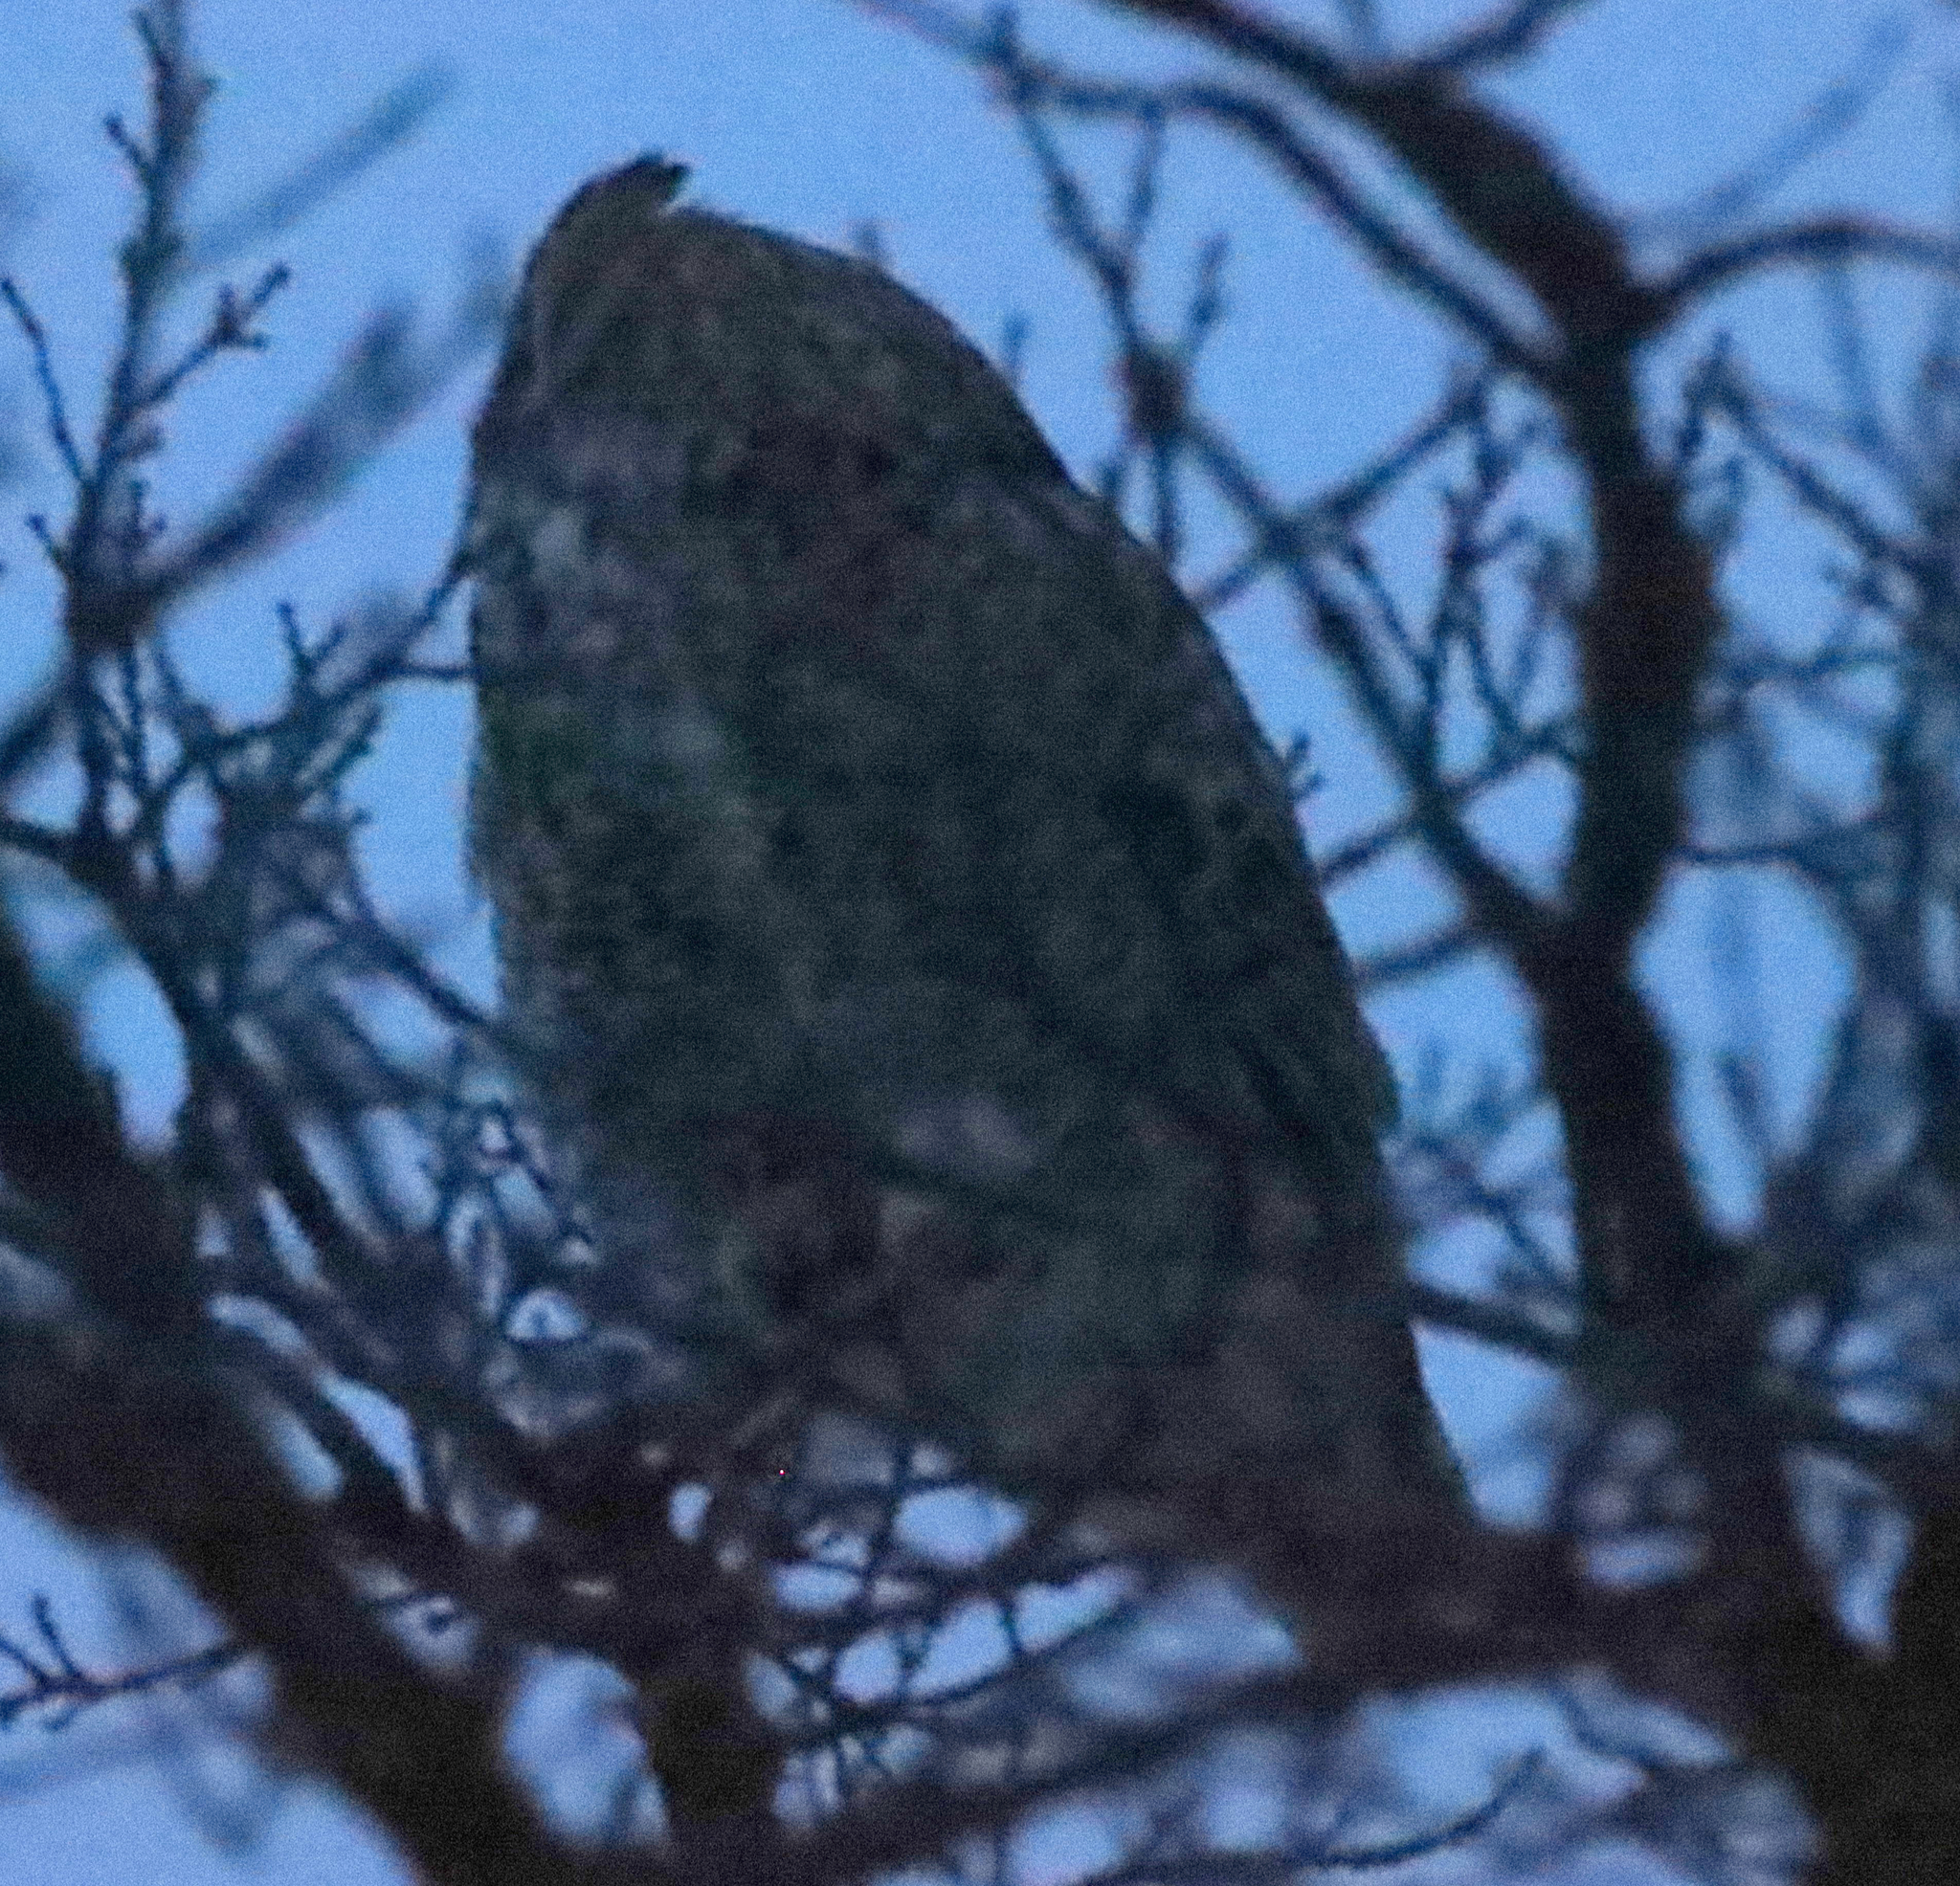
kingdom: Animalia
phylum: Chordata
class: Aves
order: Strigiformes
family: Strigidae
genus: Bubo
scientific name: Bubo virginianus
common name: Great horned owl
